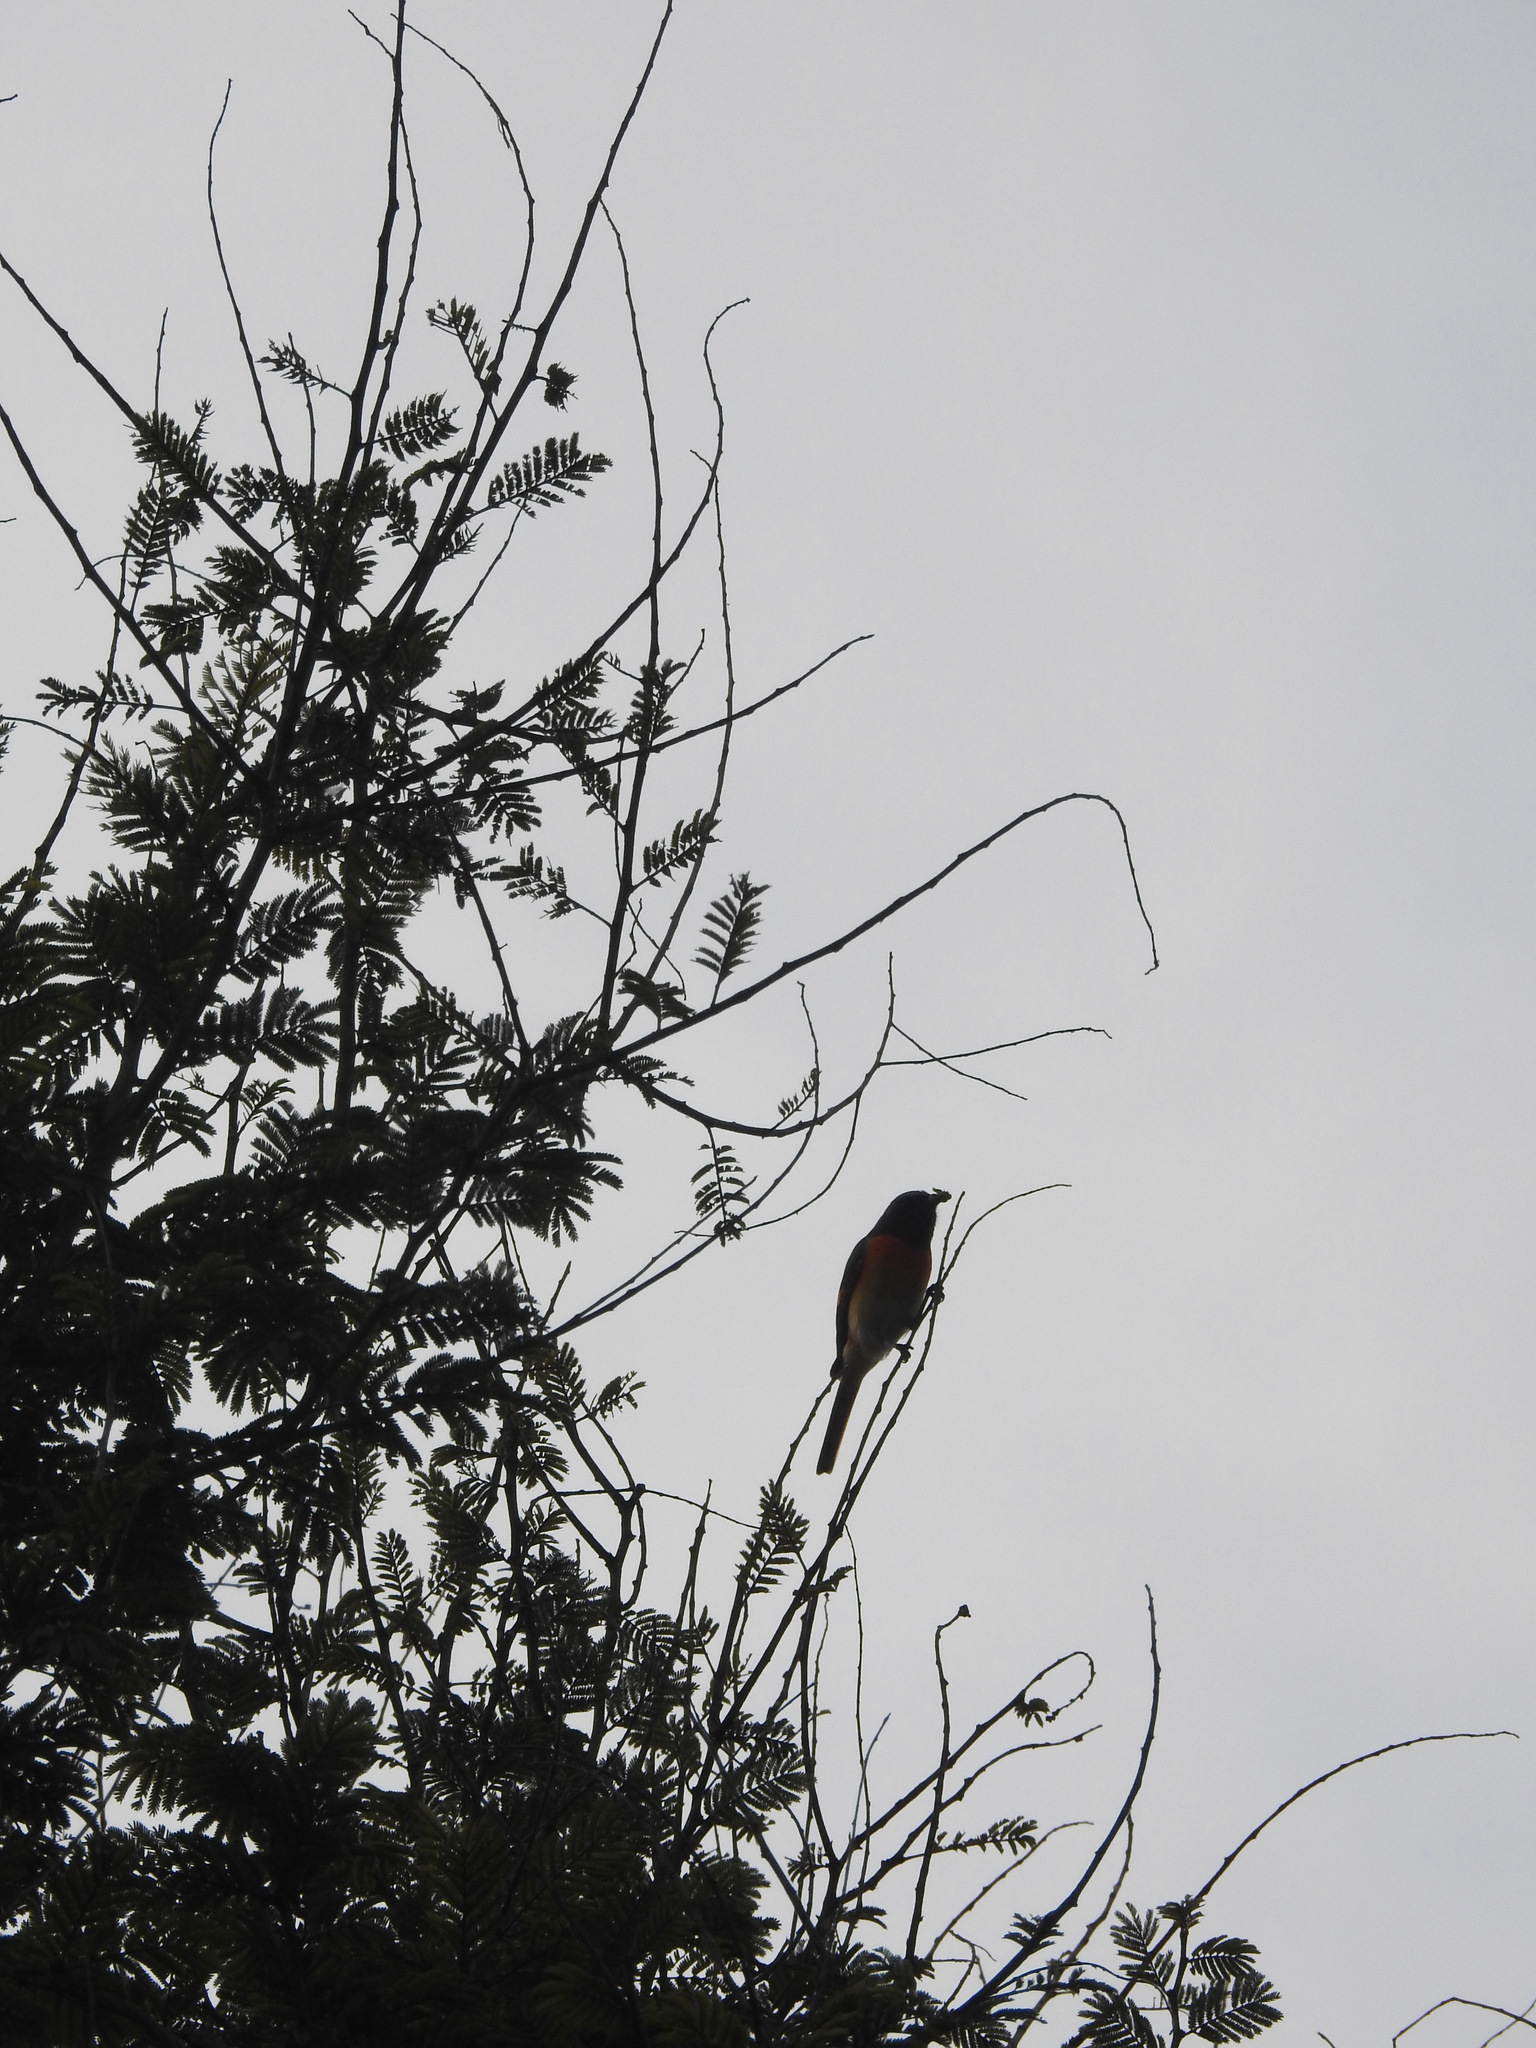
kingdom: Animalia
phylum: Chordata
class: Aves
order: Passeriformes
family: Campephagidae
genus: Pericrocotus
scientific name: Pericrocotus cinnamomeus
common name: Small minivet
